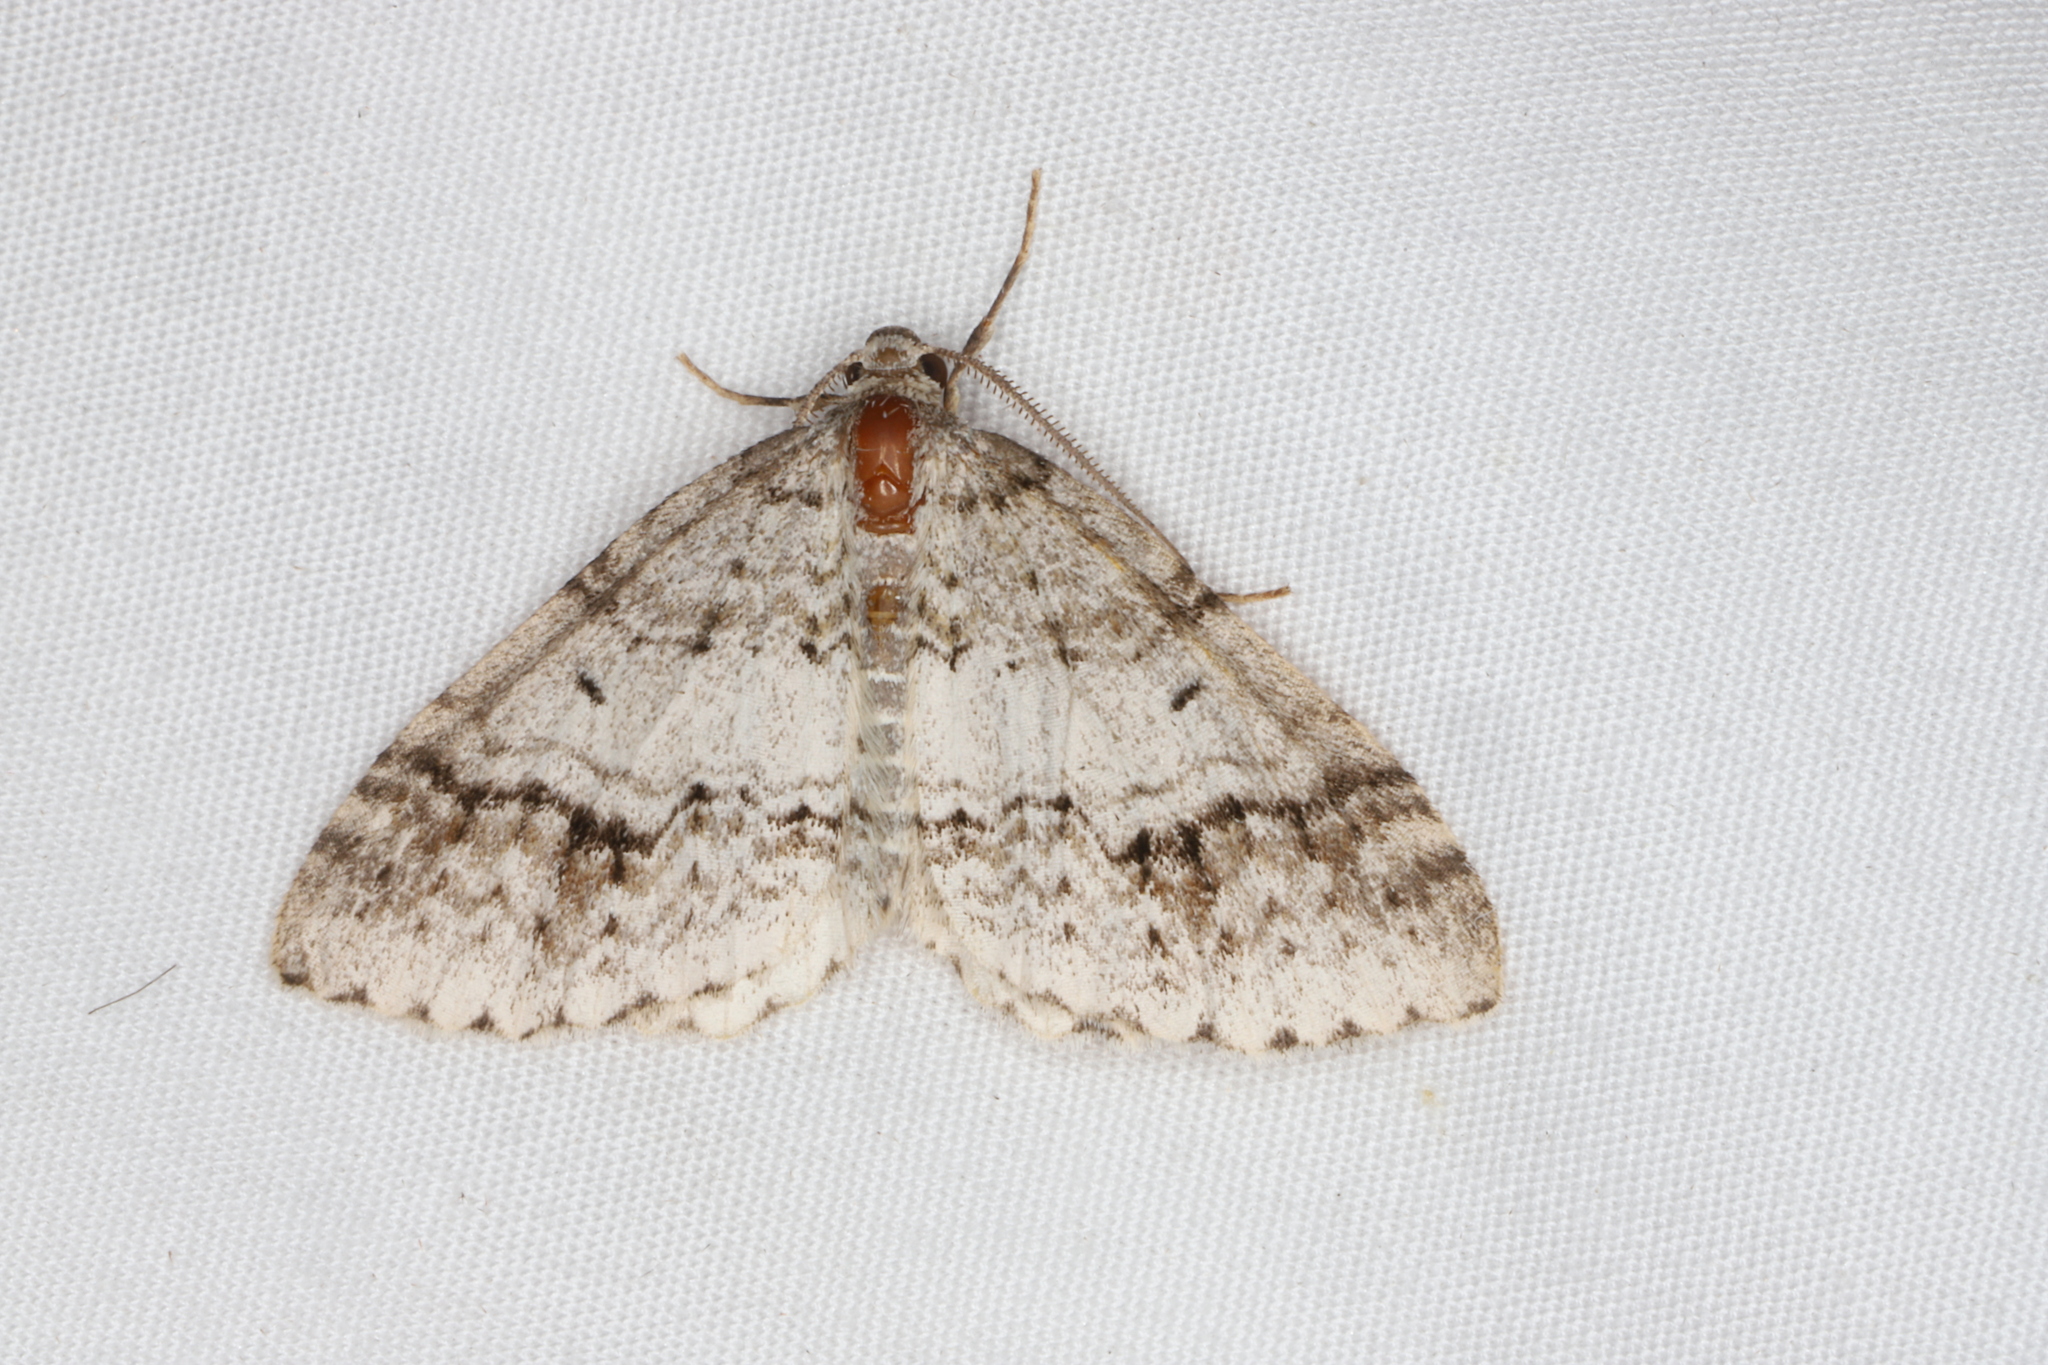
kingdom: Animalia
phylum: Arthropoda
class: Insecta
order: Lepidoptera
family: Geometridae
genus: Venusia
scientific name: Venusia cambrica
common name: Welsh wave
